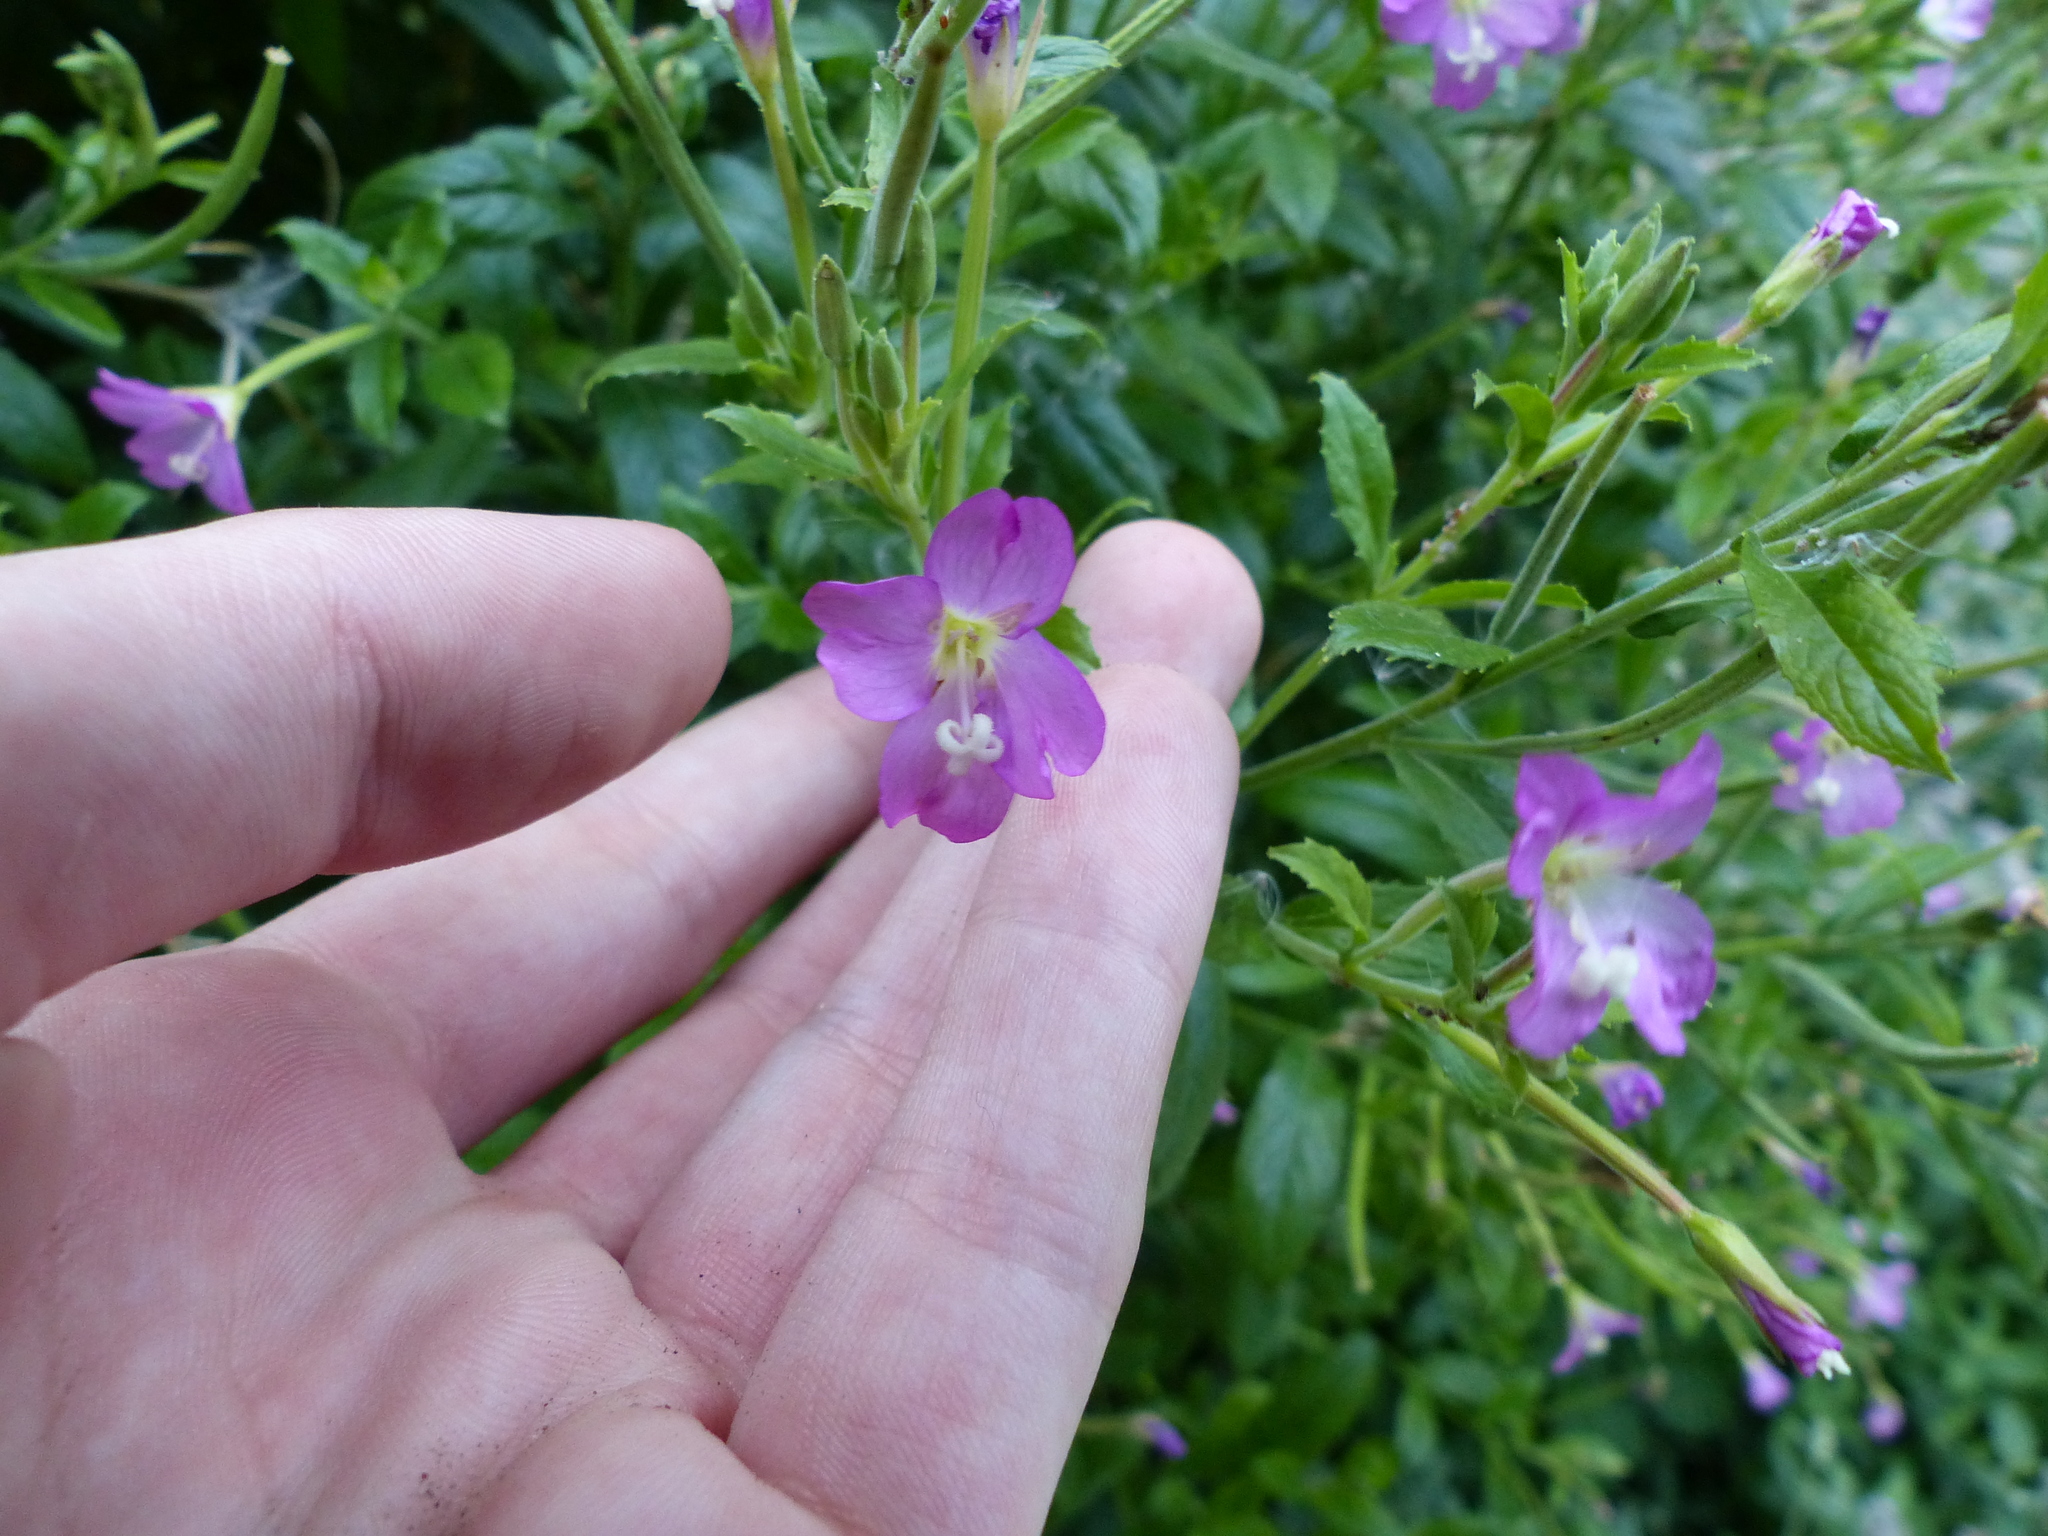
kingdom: Plantae
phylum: Tracheophyta
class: Magnoliopsida
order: Myrtales
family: Onagraceae
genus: Epilobium
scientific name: Epilobium hirsutum
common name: Great willowherb
